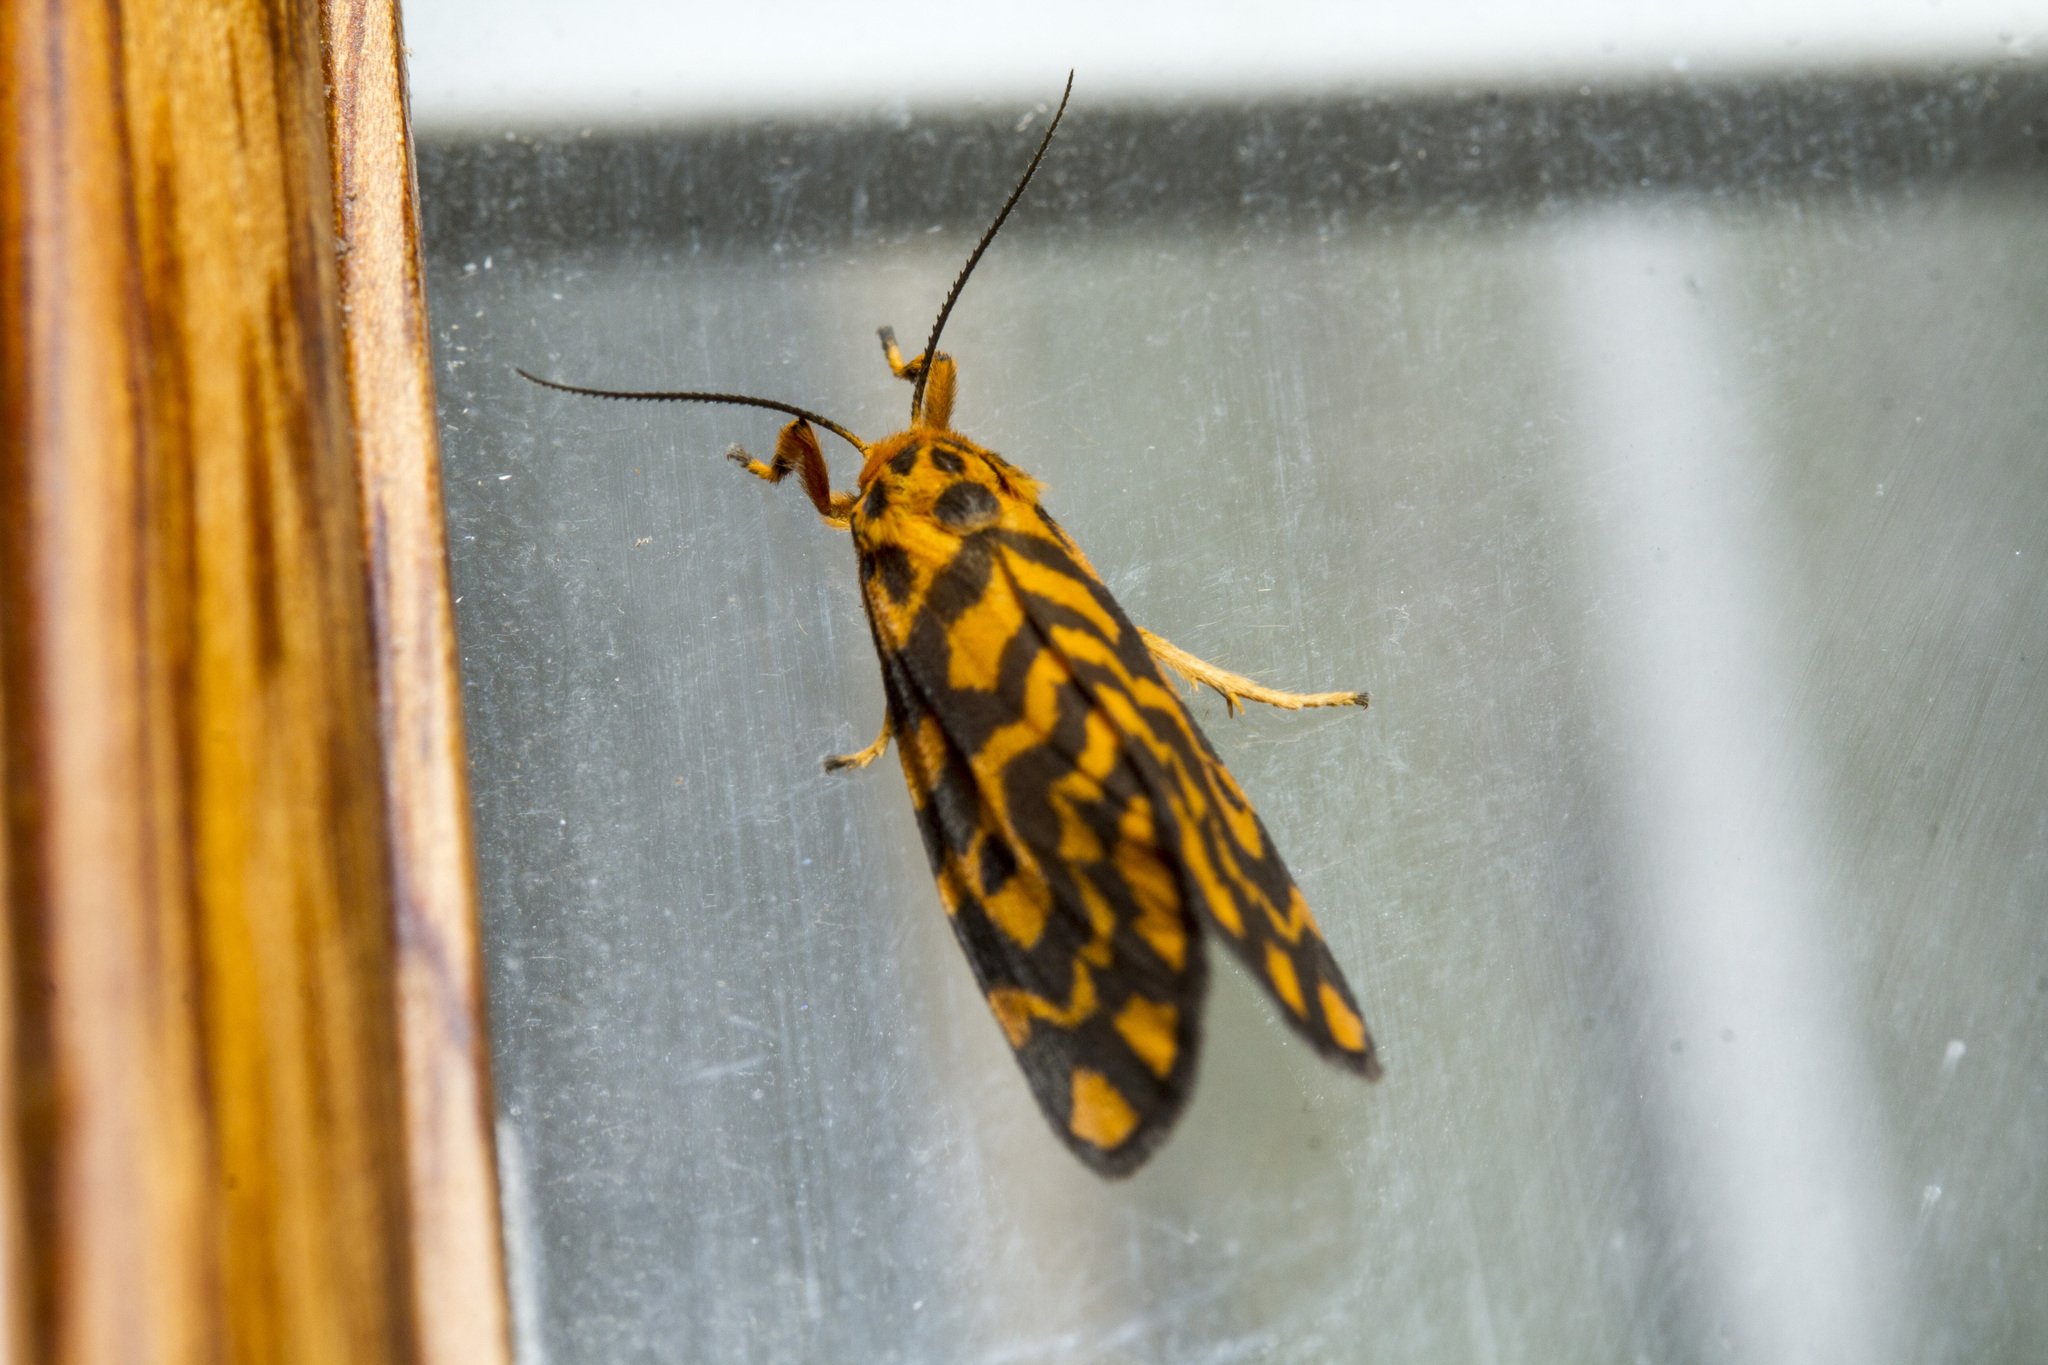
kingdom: Animalia
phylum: Arthropoda
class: Insecta
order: Lepidoptera
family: Erebidae
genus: Nepita
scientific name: Nepita conferta
